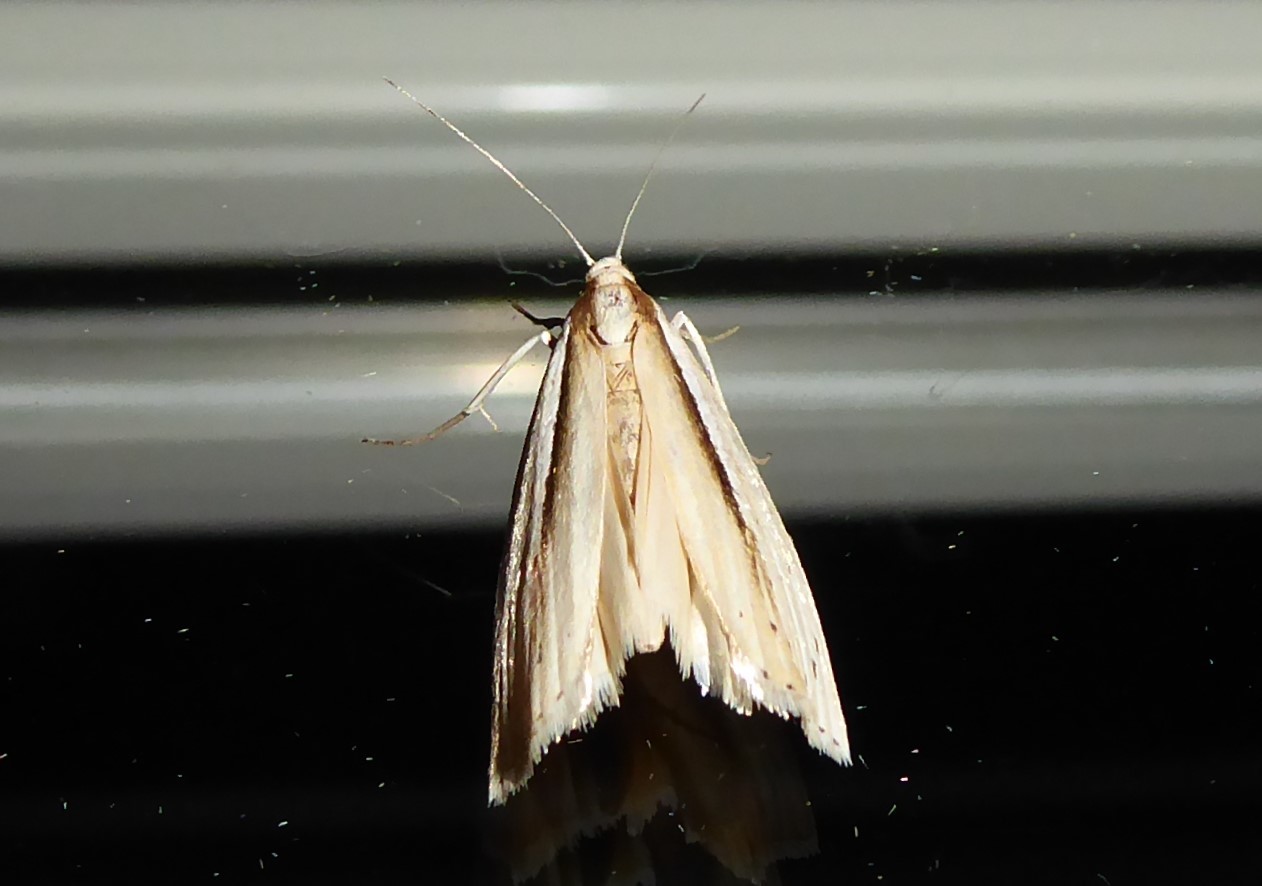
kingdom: Animalia
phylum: Arthropoda
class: Insecta
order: Lepidoptera
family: Crambidae
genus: Orocrambus
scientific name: Orocrambus ramosellus
